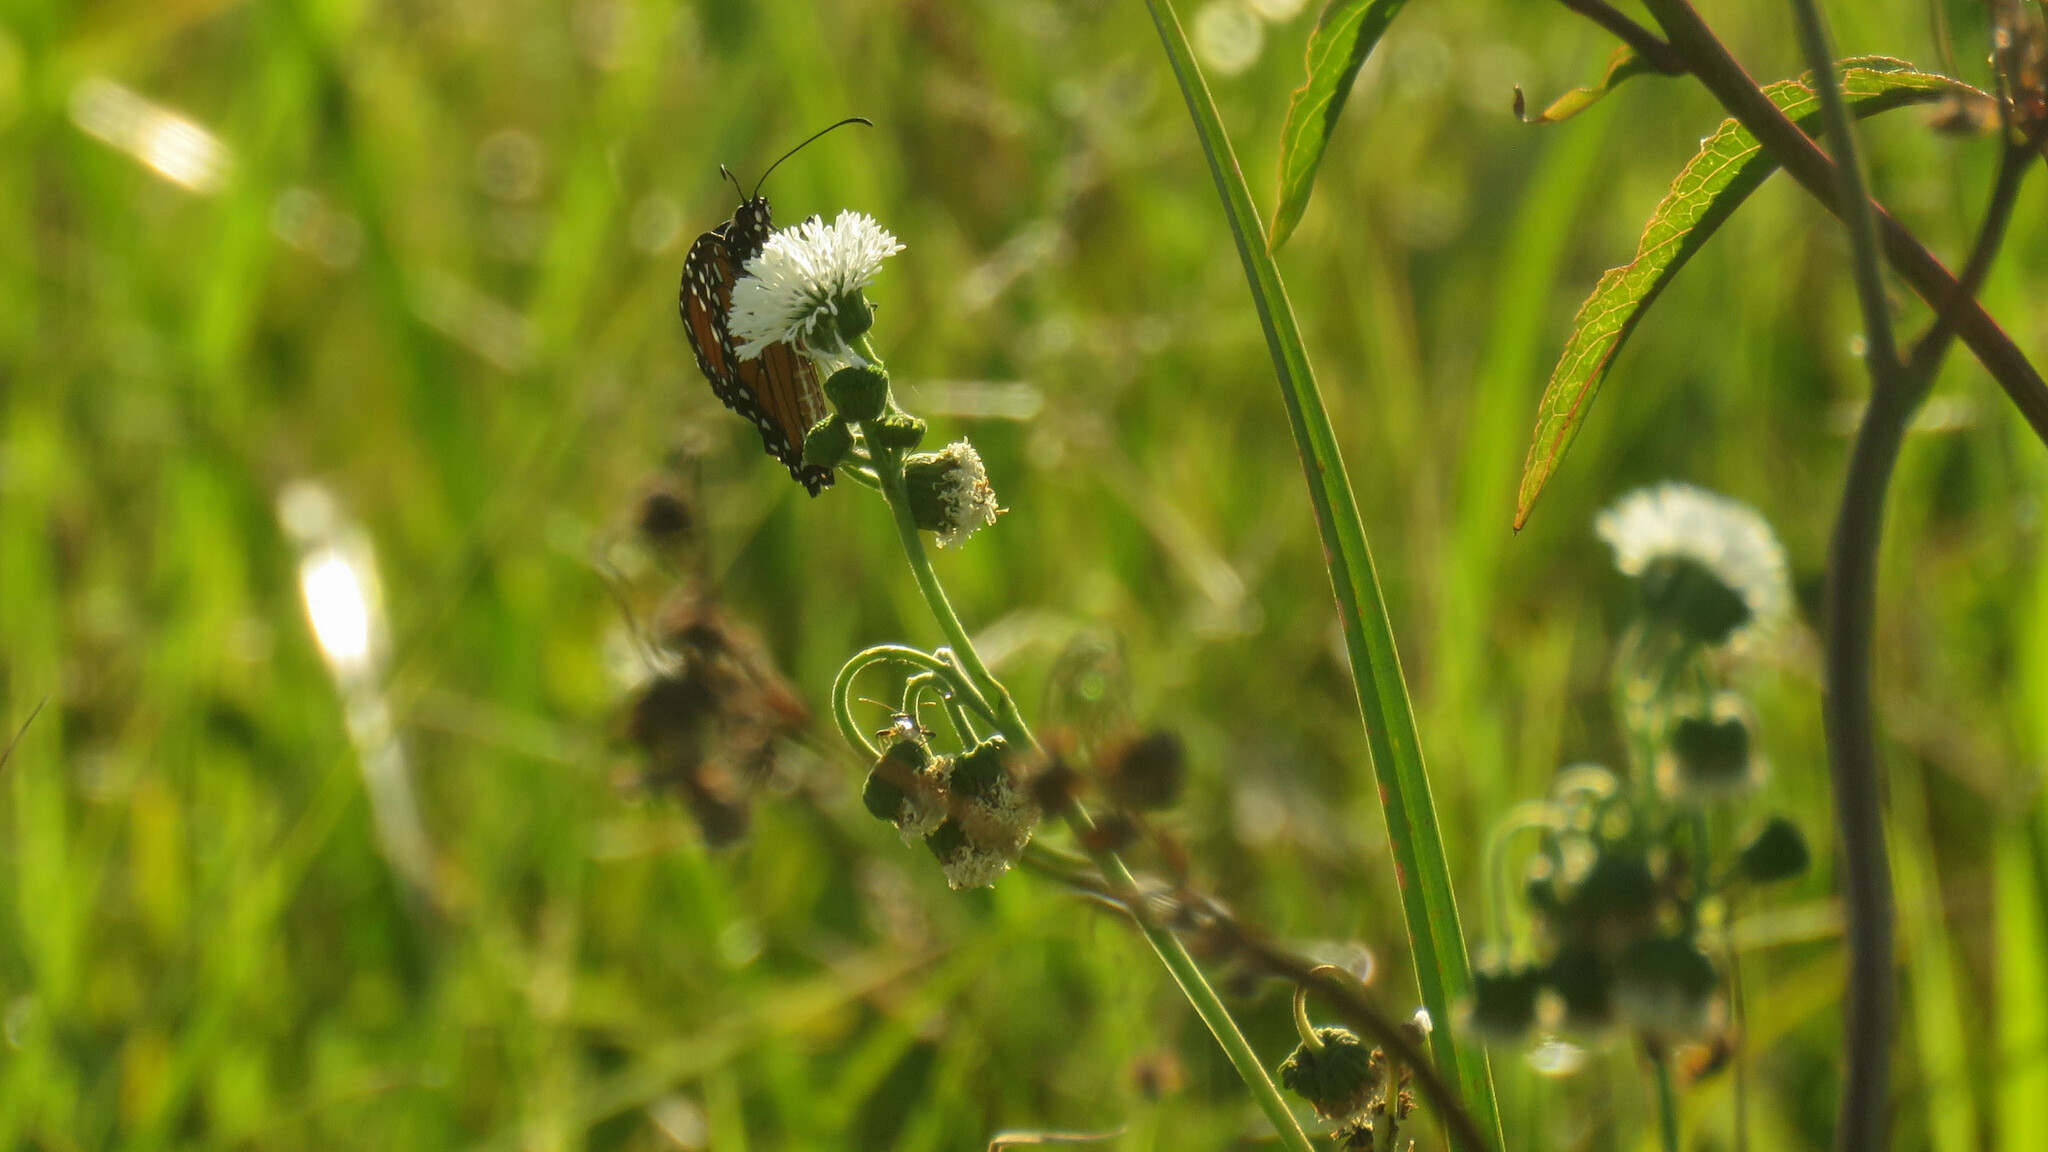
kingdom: Plantae
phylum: Tracheophyta
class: Magnoliopsida
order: Asterales
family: Asteraceae
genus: Gymnocoronis
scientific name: Gymnocoronis spilanthoides
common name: Senegal teaplant
